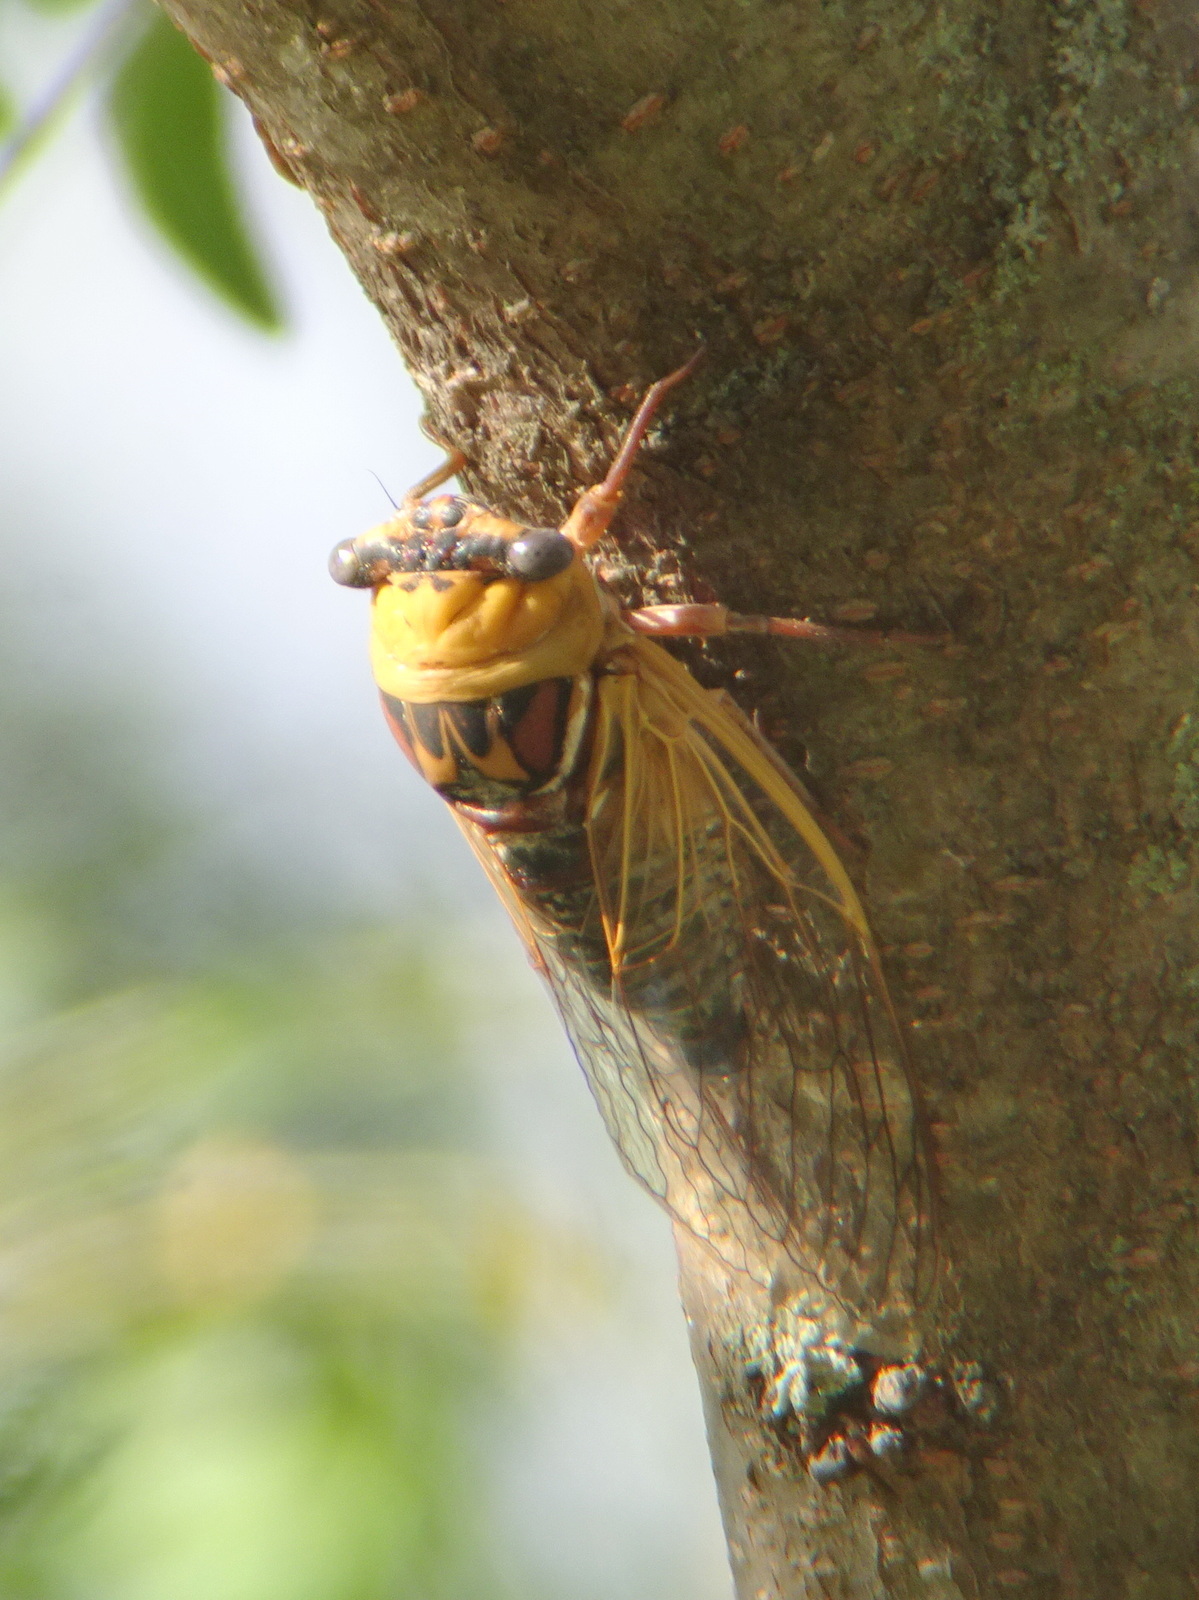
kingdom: Animalia
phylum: Arthropoda
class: Insecta
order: Hemiptera
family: Cicadidae
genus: Megatibicen
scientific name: Megatibicen pronotalis
